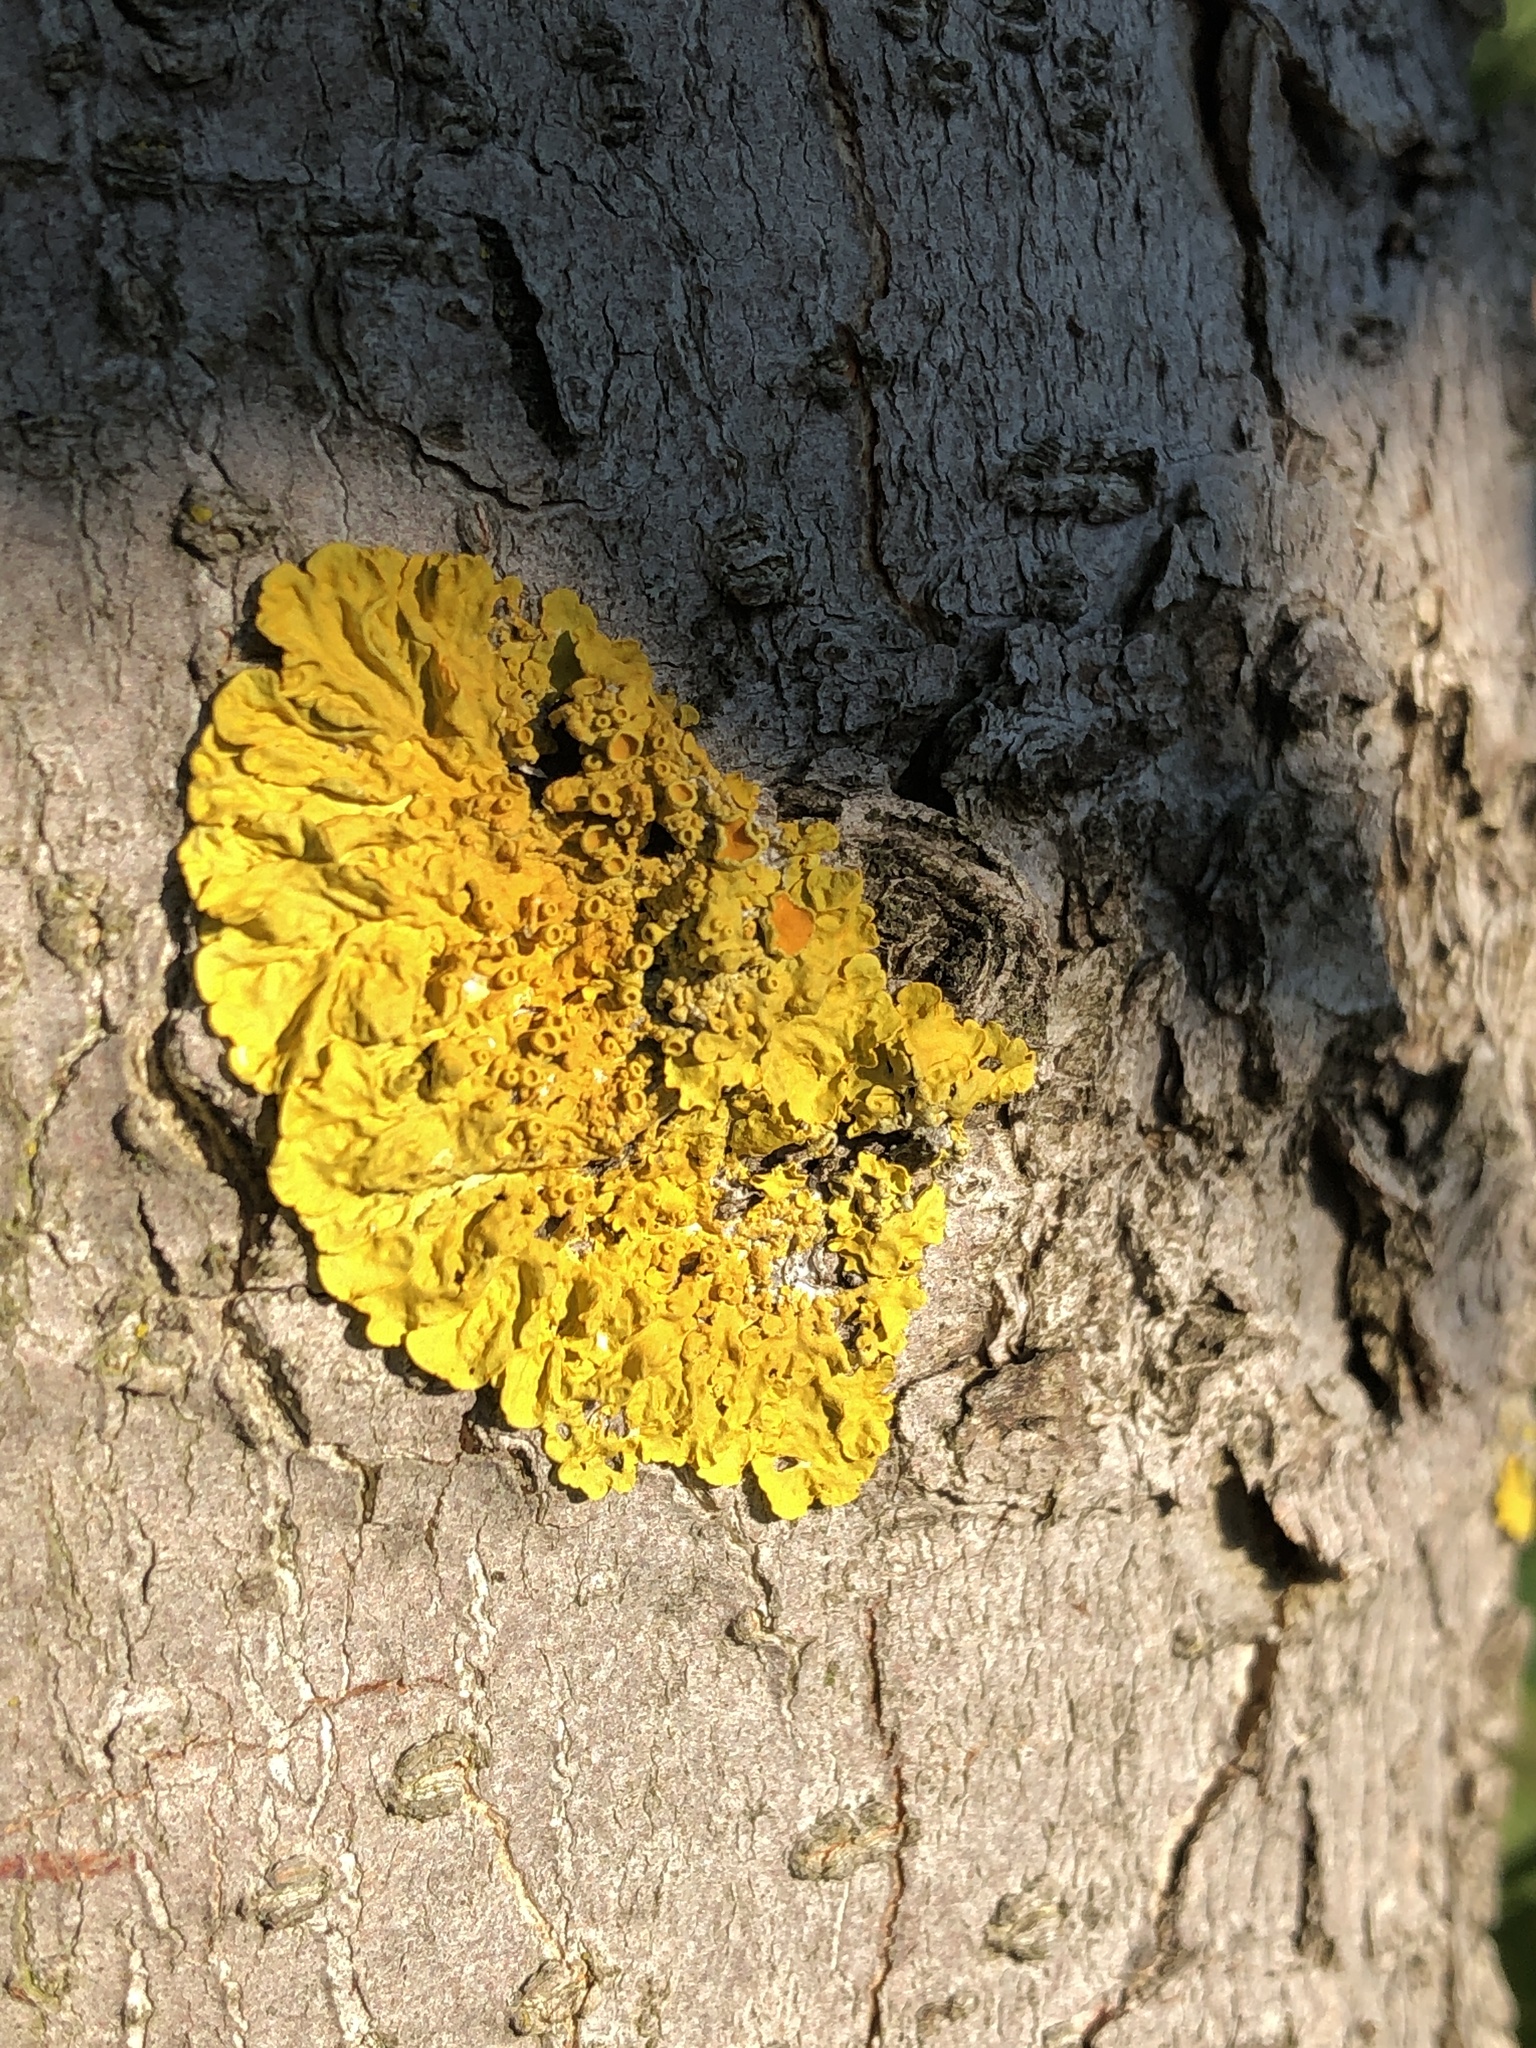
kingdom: Fungi
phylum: Ascomycota
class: Lecanoromycetes
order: Teloschistales
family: Teloschistaceae
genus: Xanthoria
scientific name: Xanthoria parietina
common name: Common orange lichen
